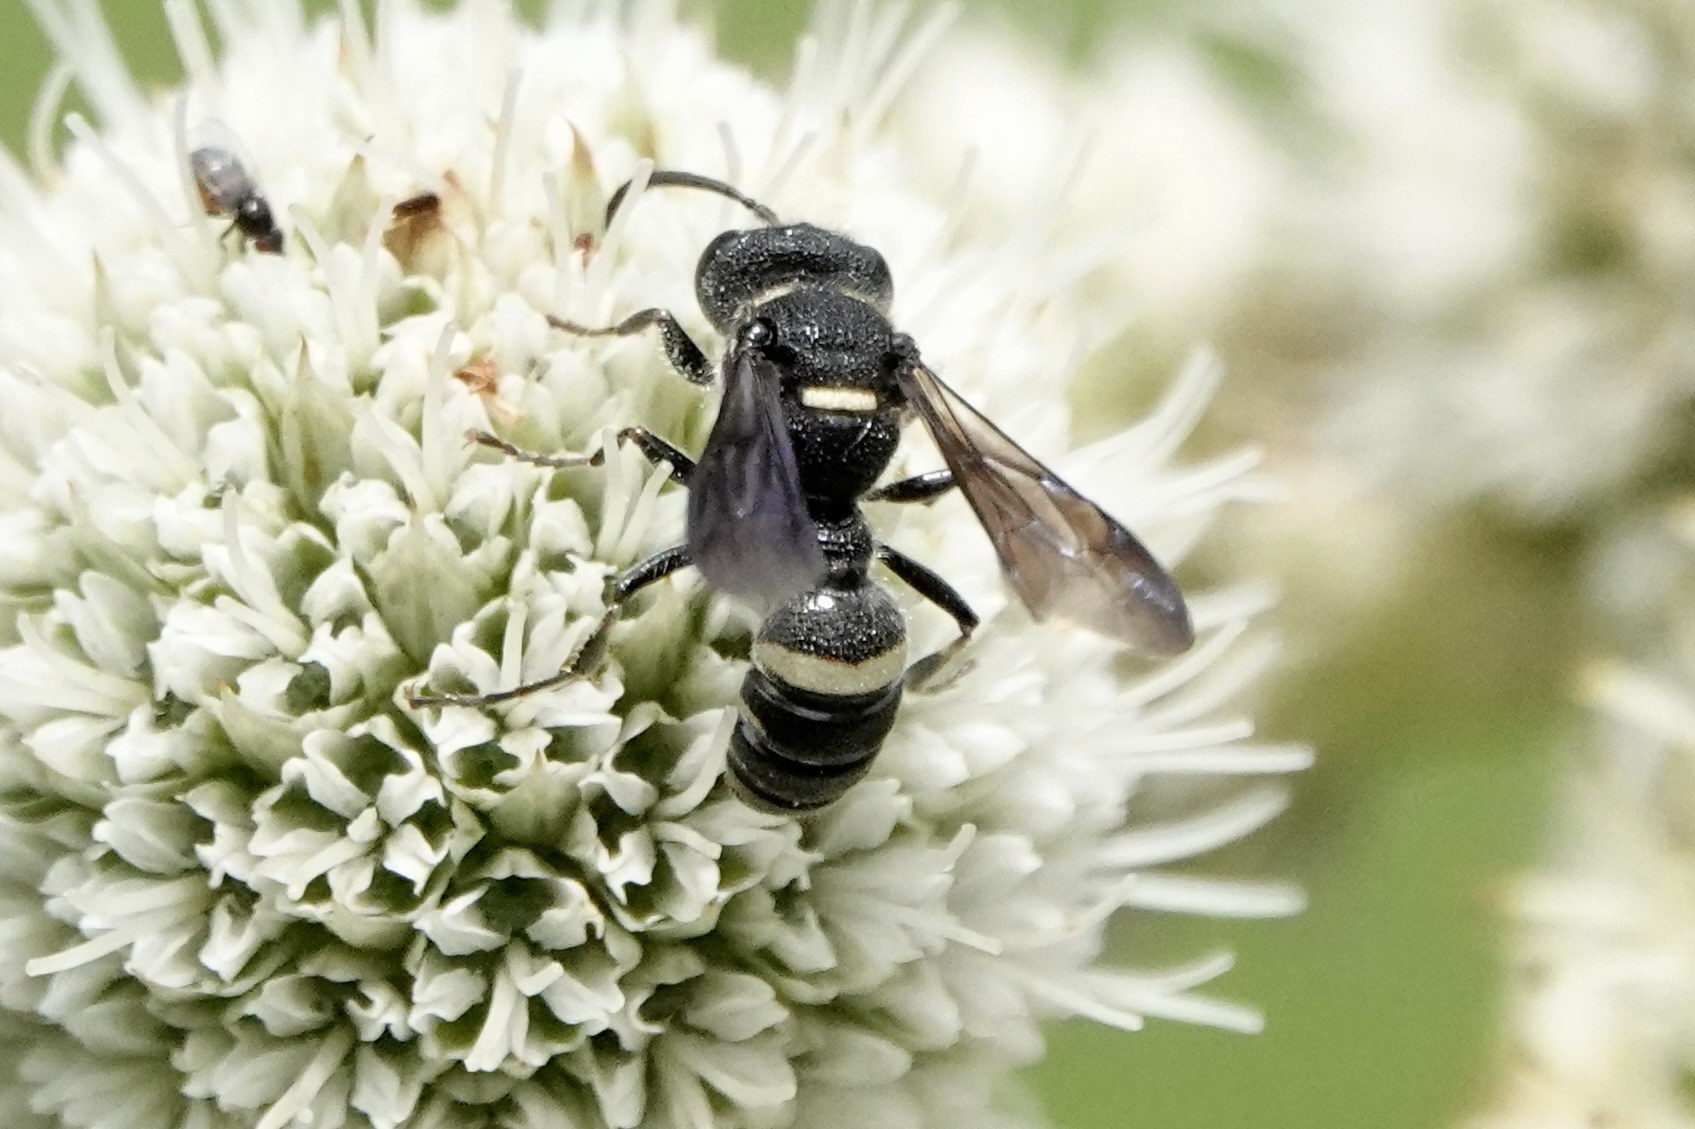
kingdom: Animalia
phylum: Arthropoda
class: Insecta
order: Hymenoptera
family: Crabronidae
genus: Cerceris
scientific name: Cerceris fumipennis
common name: Smokey-winged beetle bandit wasp
